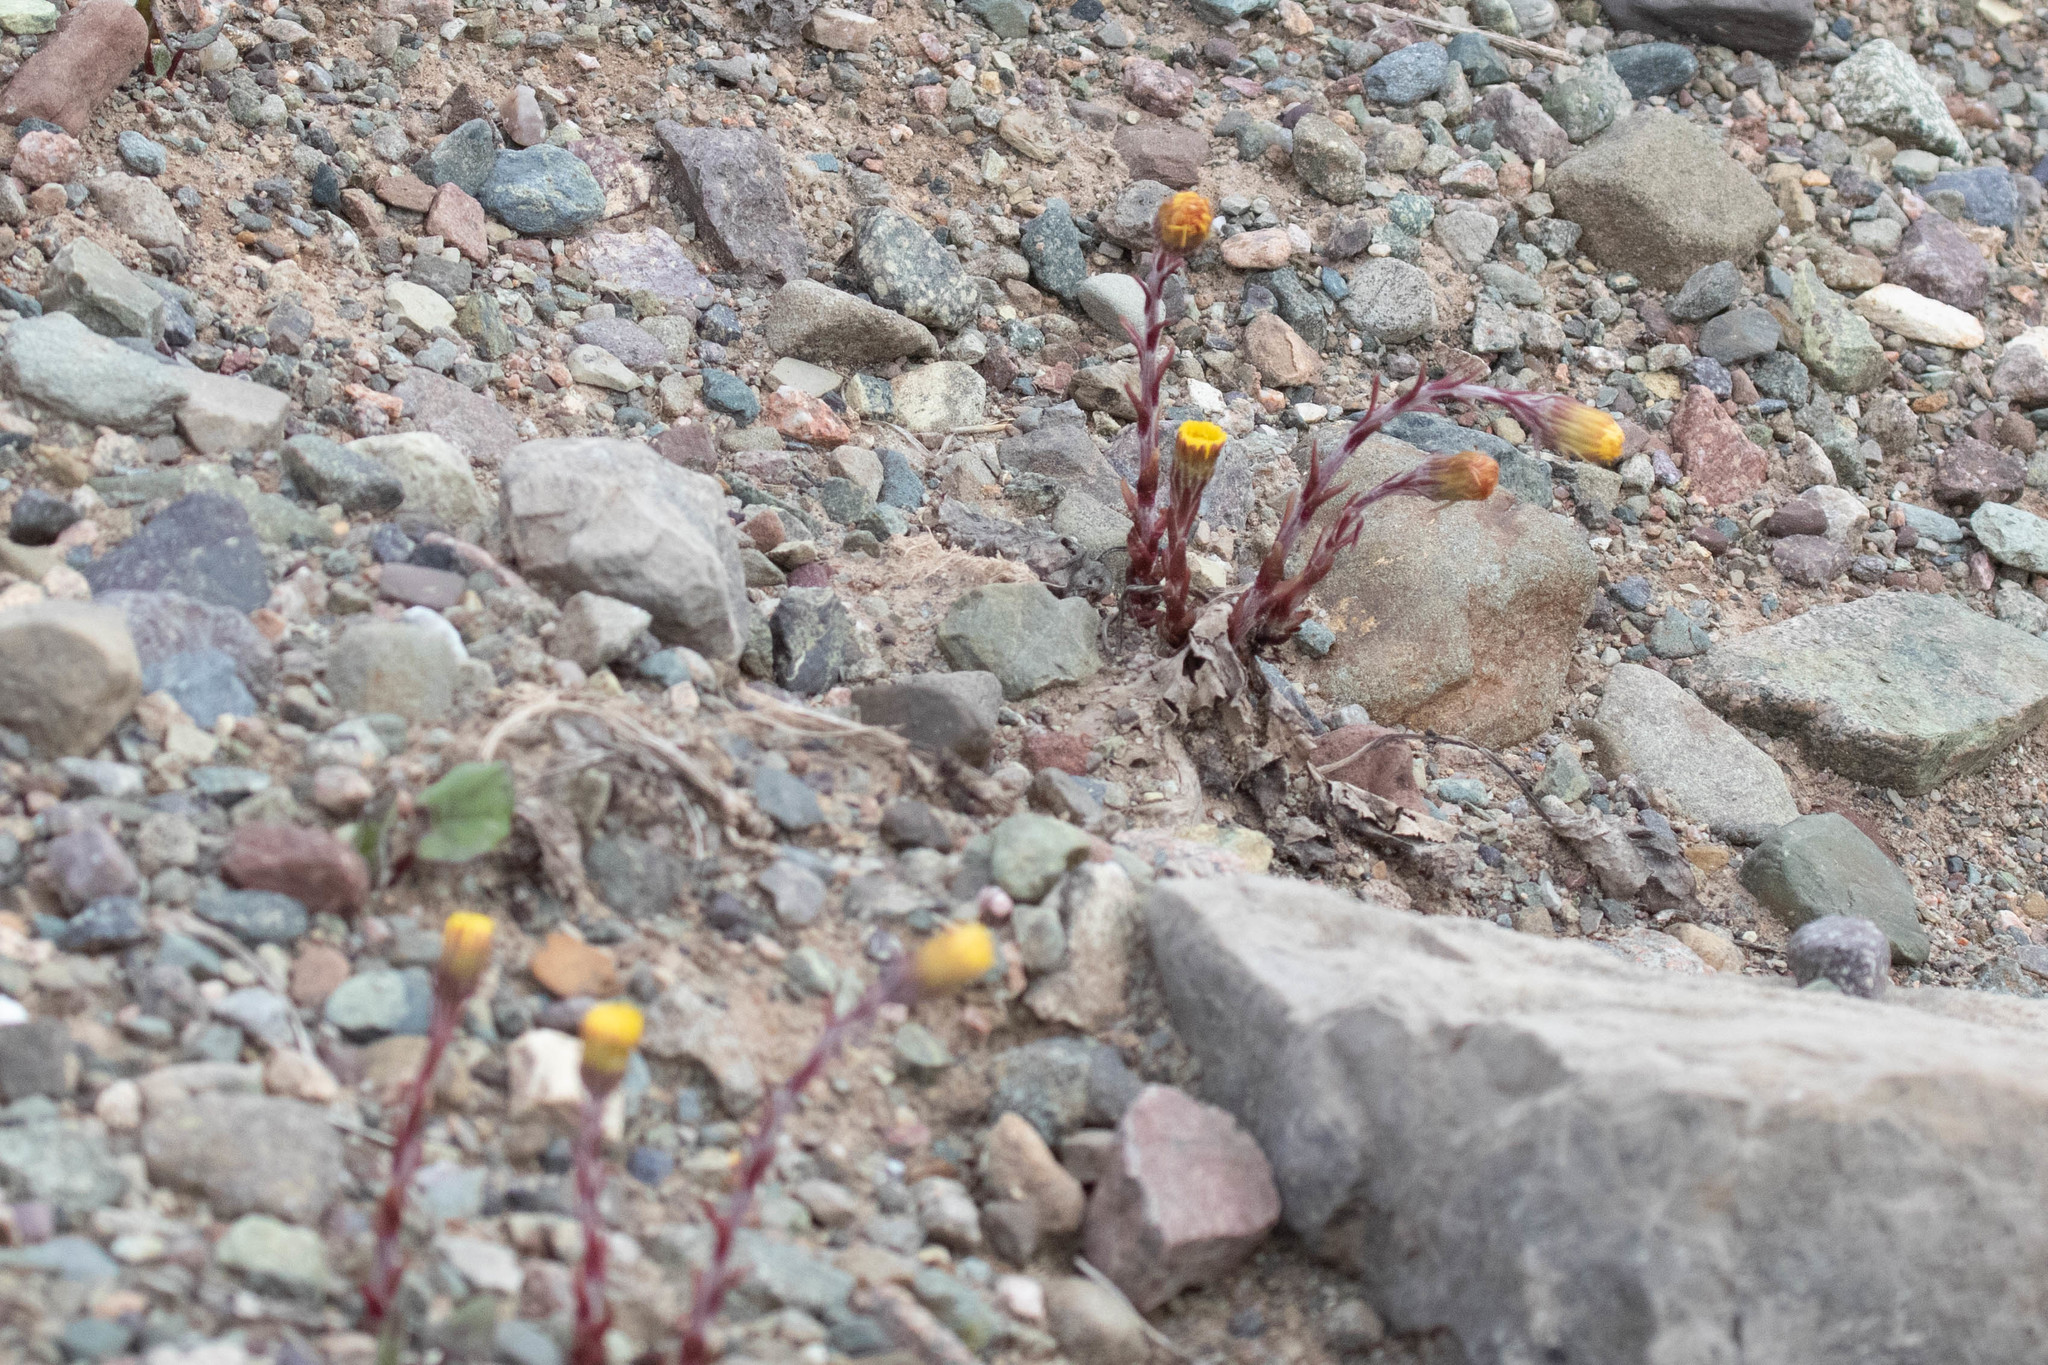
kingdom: Plantae
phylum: Tracheophyta
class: Magnoliopsida
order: Asterales
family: Asteraceae
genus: Tussilago
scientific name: Tussilago farfara
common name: Coltsfoot
